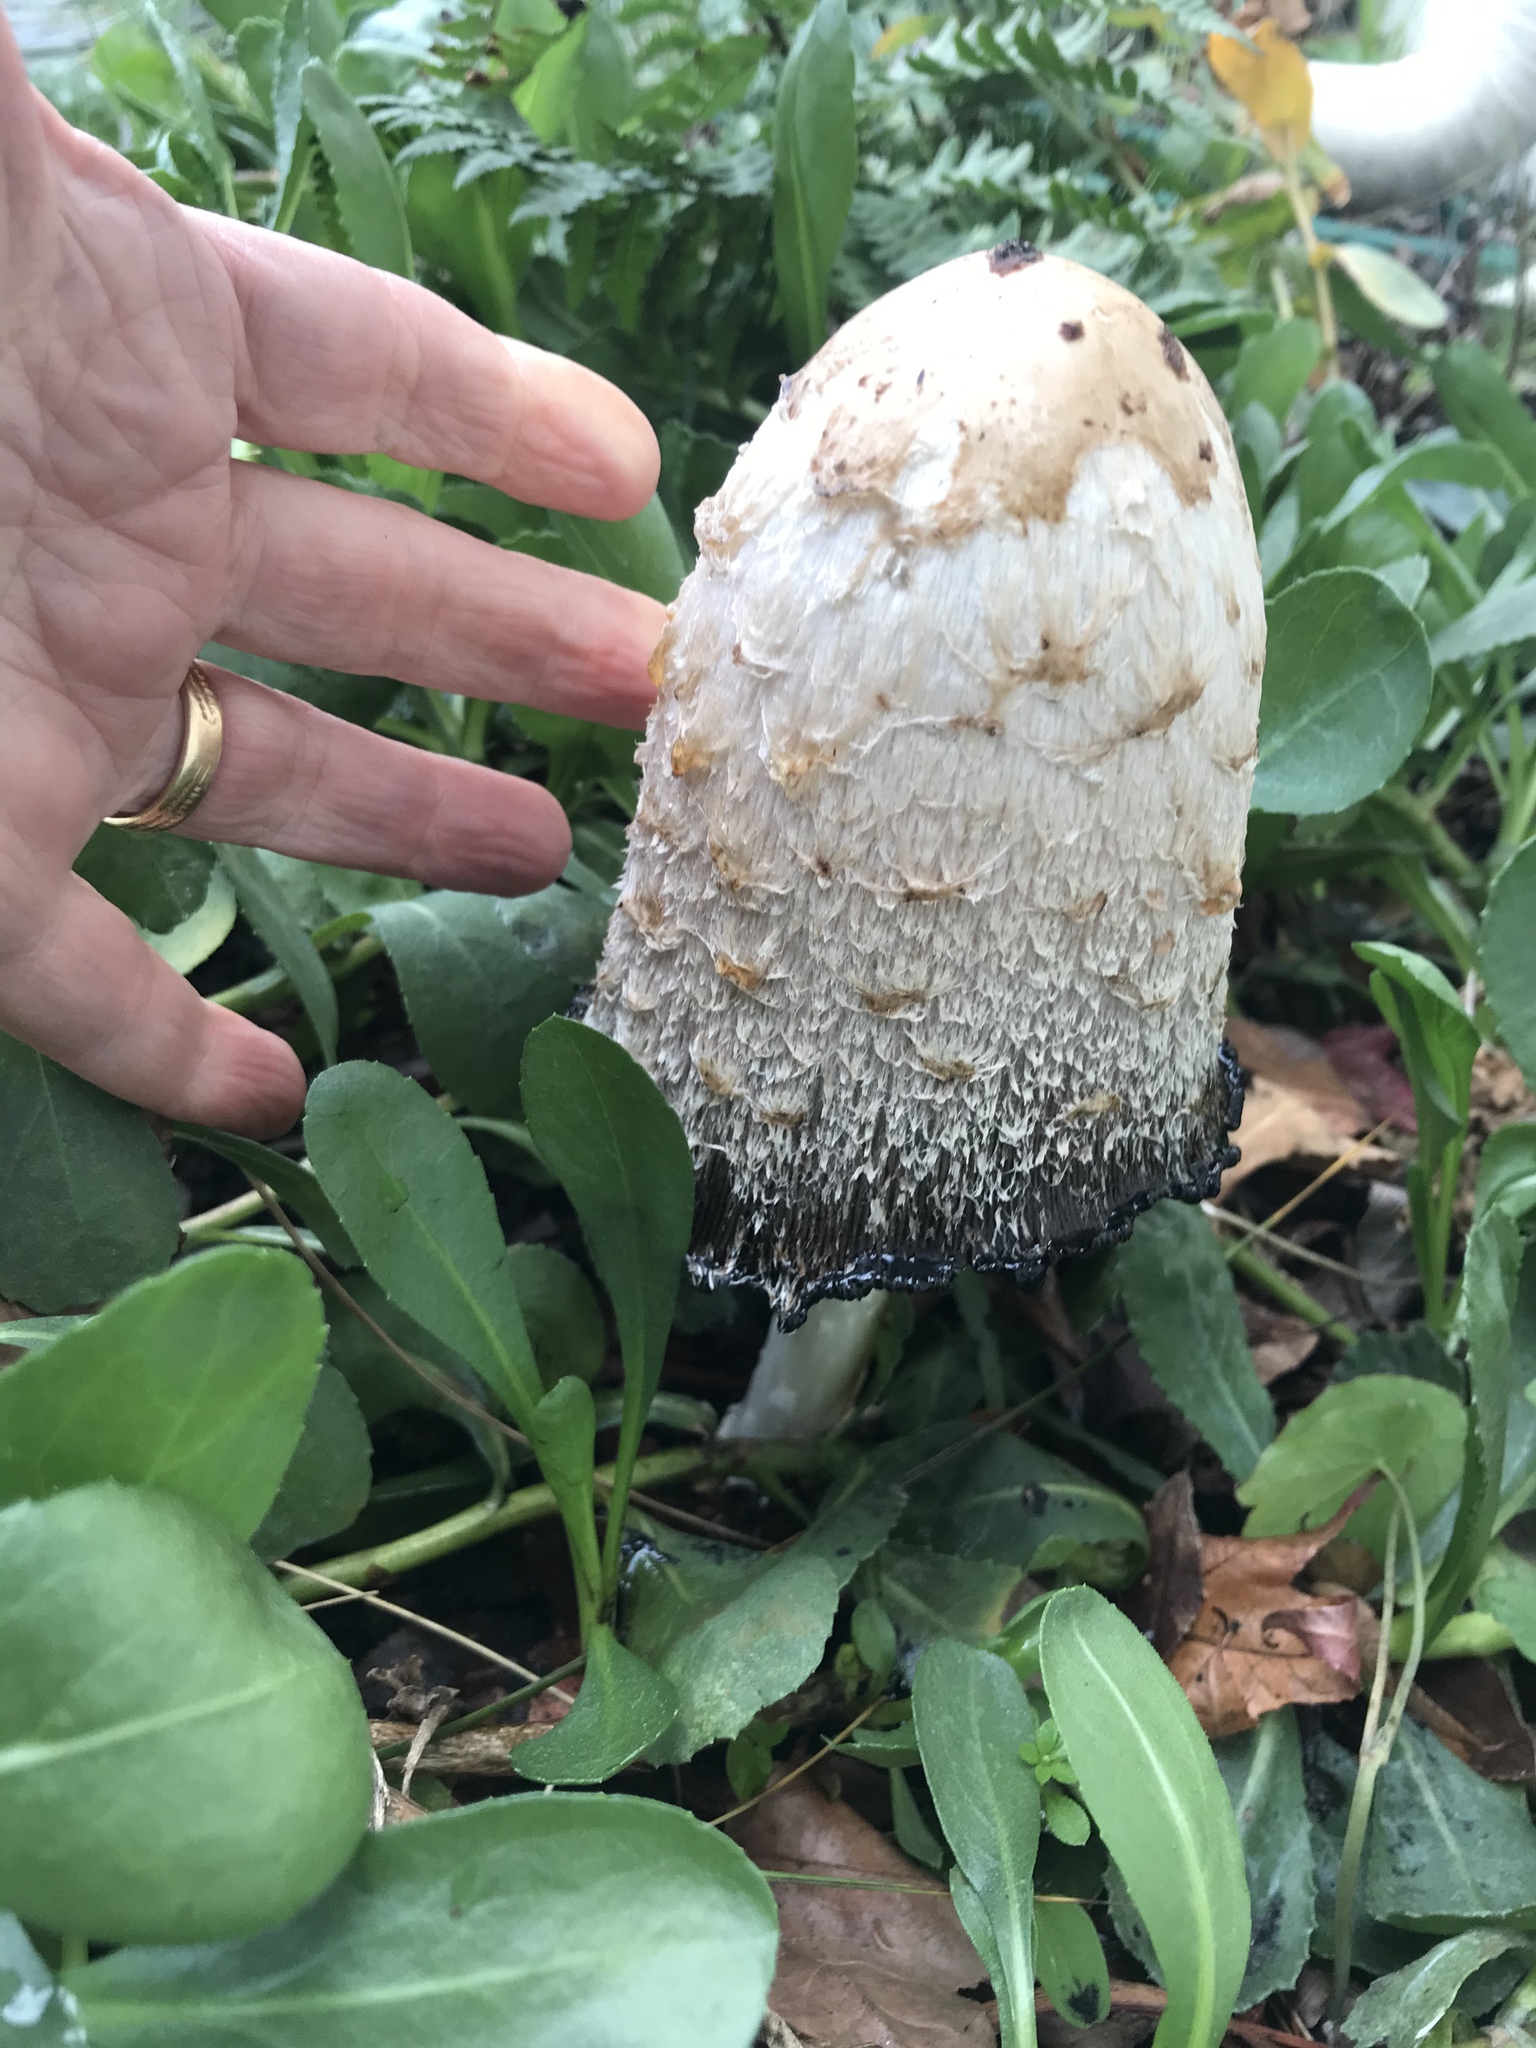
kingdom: Fungi
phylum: Basidiomycota
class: Agaricomycetes
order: Agaricales
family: Agaricaceae
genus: Coprinus
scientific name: Coprinus comatus
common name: Lawyer's wig
